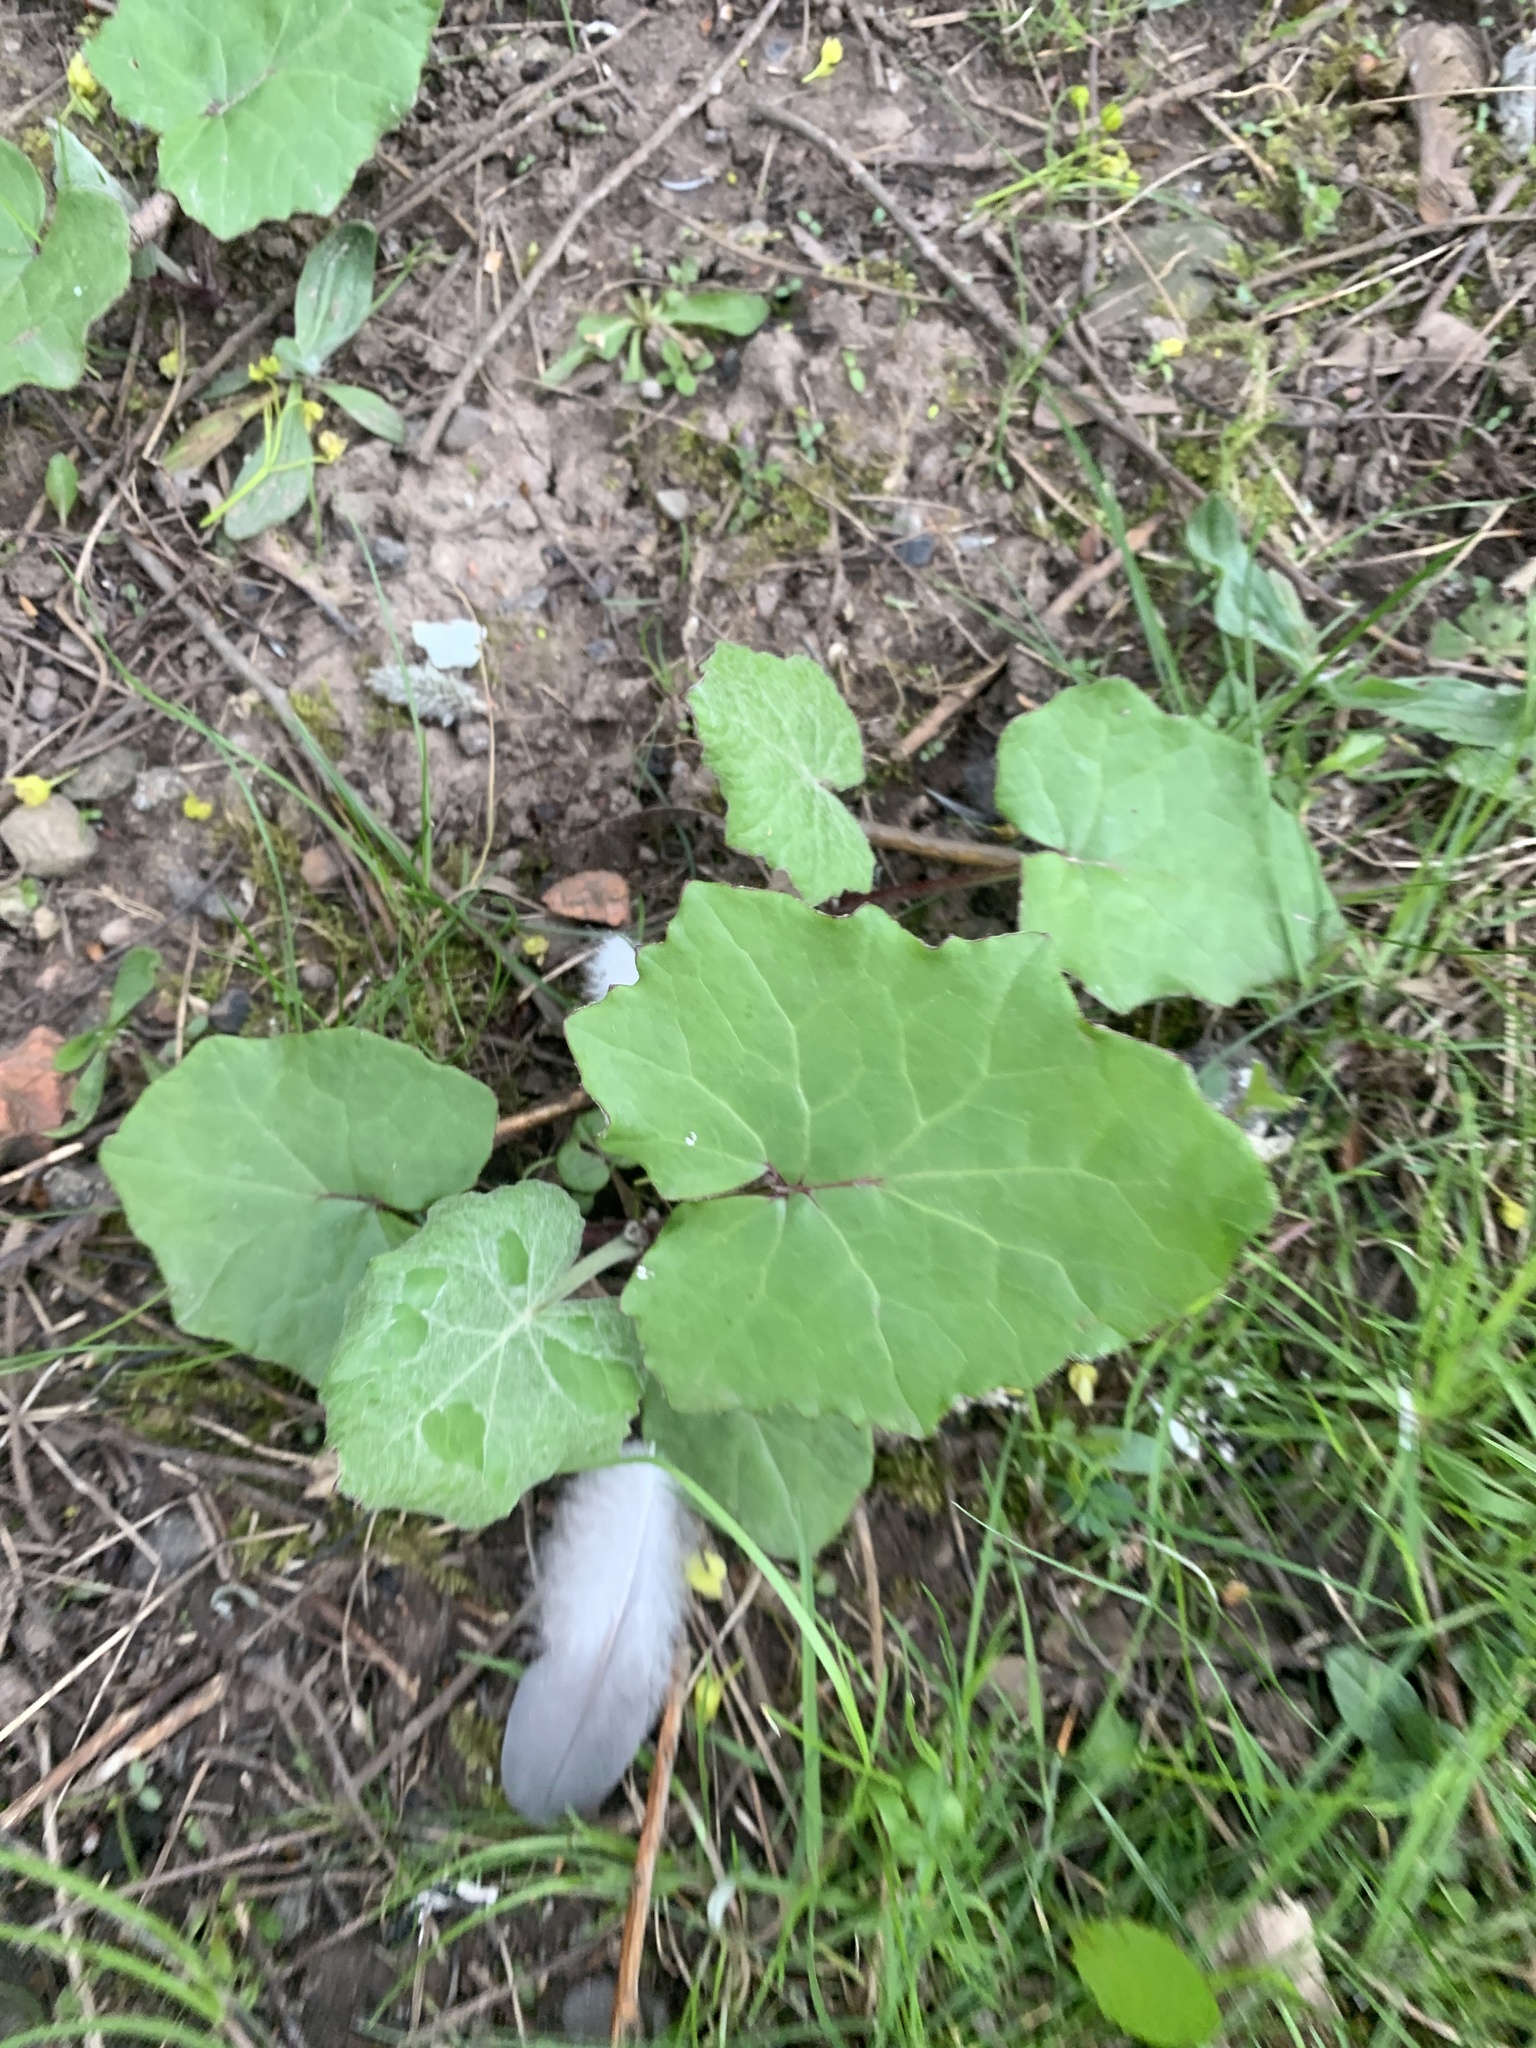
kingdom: Plantae
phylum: Tracheophyta
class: Magnoliopsida
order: Asterales
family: Asteraceae
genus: Tussilago
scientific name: Tussilago farfara
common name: Coltsfoot
